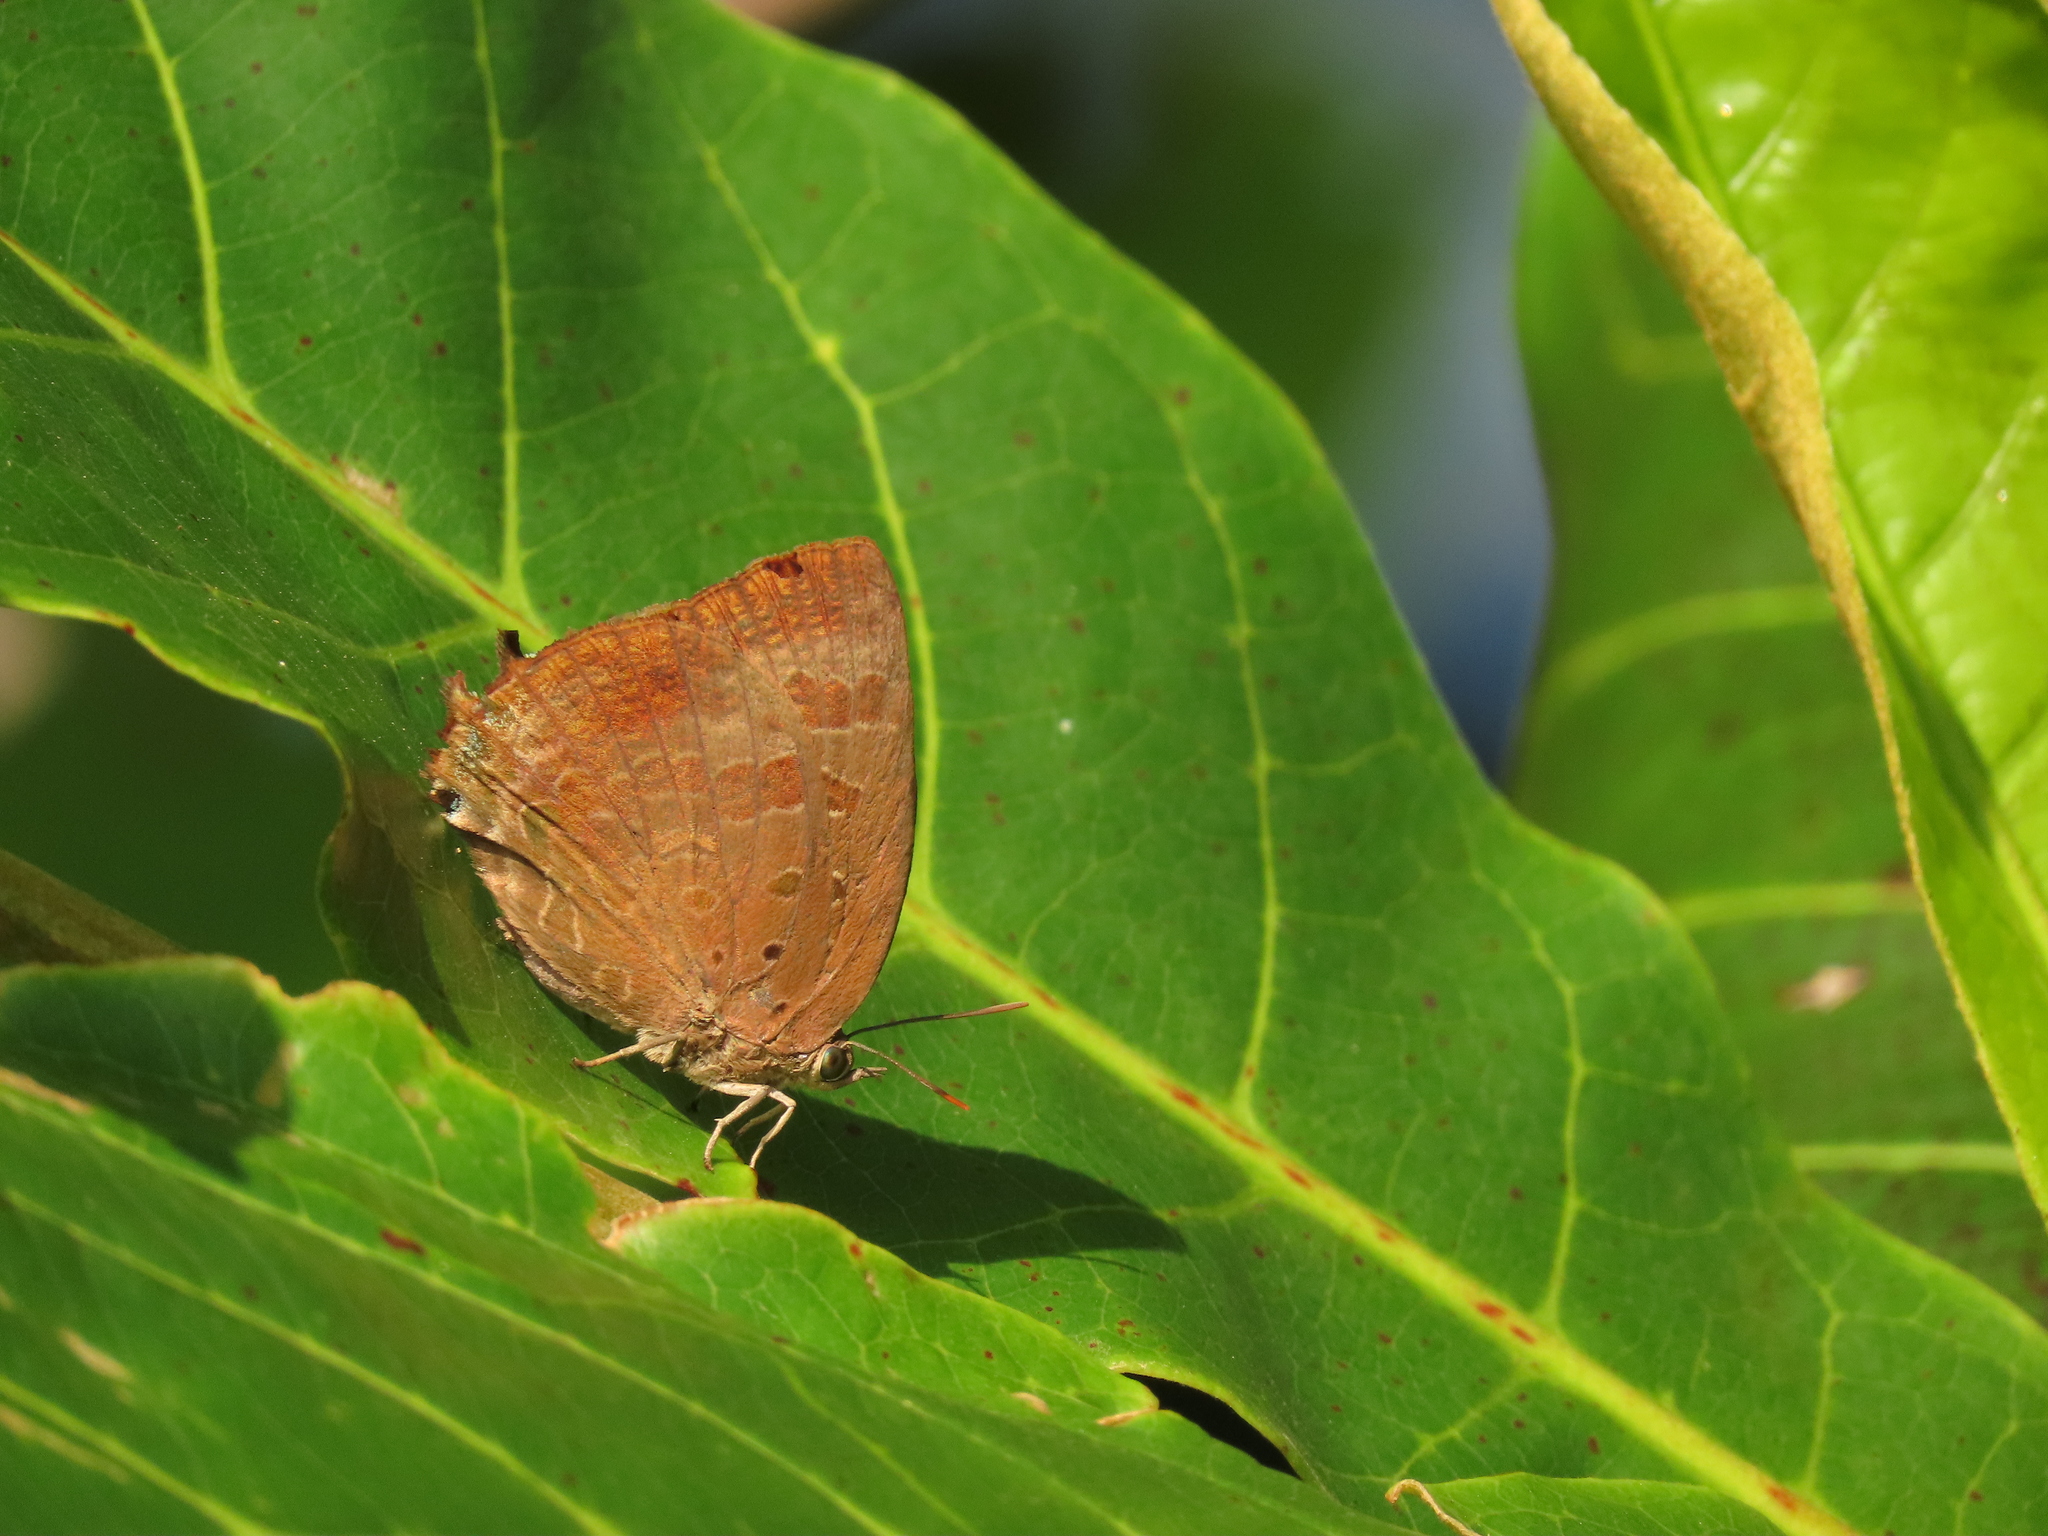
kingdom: Animalia
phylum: Arthropoda
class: Insecta
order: Lepidoptera
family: Lycaenidae
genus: Arhopala
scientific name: Arhopala madytus
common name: Bright oak-blue
